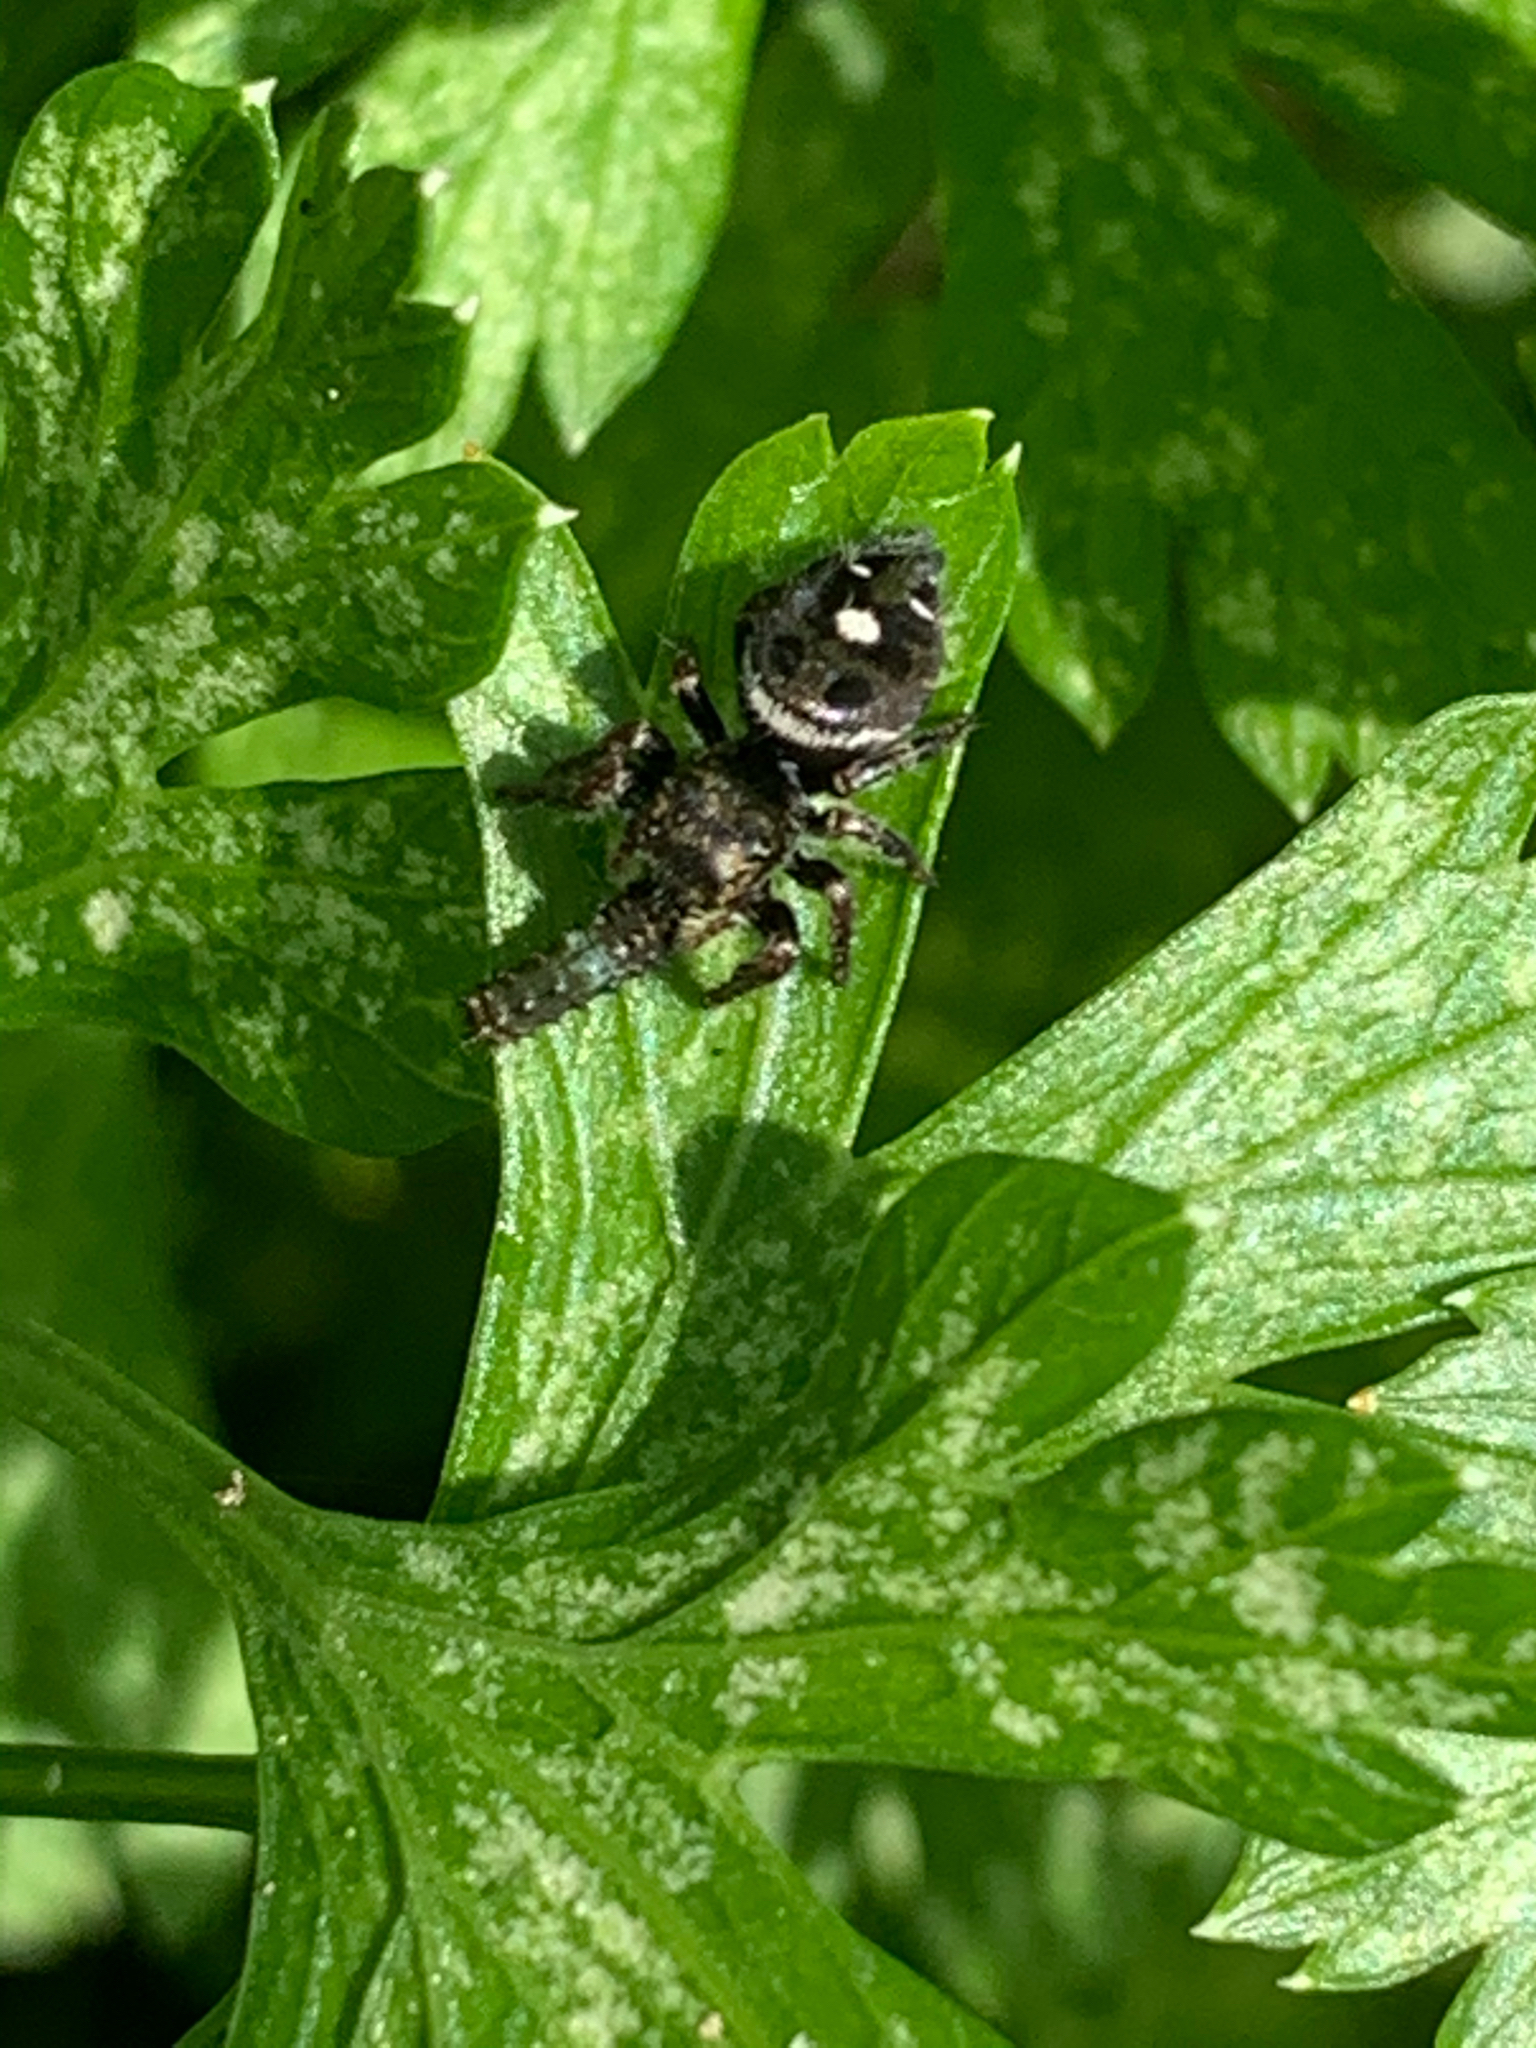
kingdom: Animalia
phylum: Arthropoda
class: Arachnida
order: Araneae
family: Salticidae
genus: Phidippus
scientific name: Phidippus audax
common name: Bold jumper
